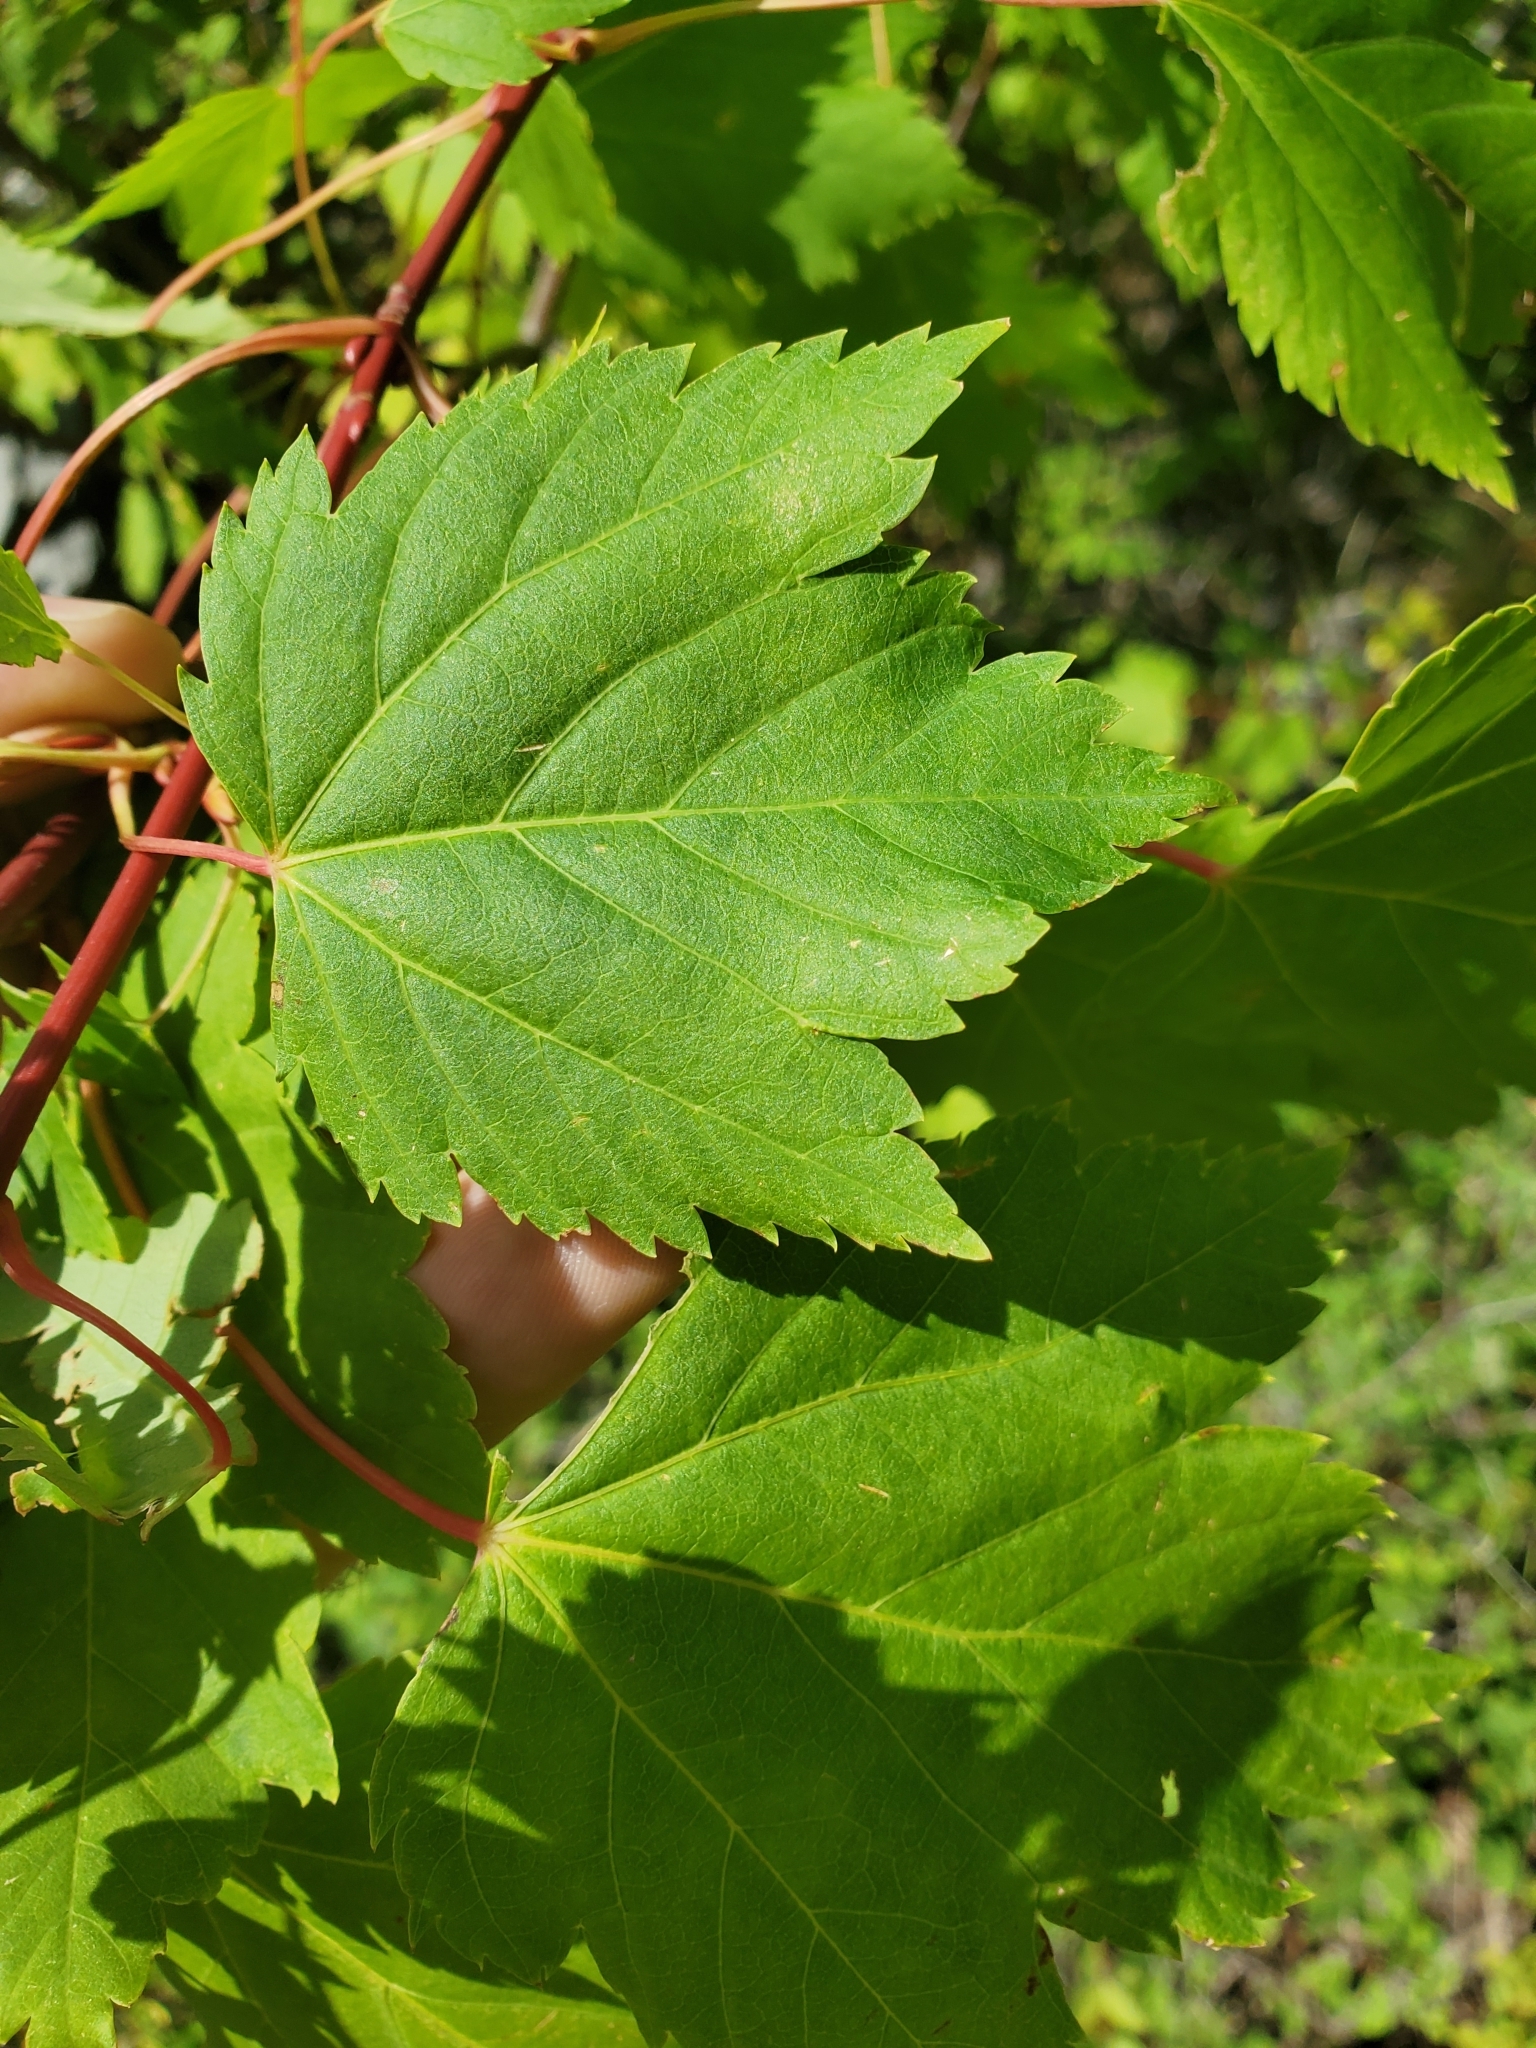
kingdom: Plantae
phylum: Tracheophyta
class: Magnoliopsida
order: Sapindales
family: Sapindaceae
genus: Acer
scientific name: Acer glabrum
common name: Rocky mountain maple
